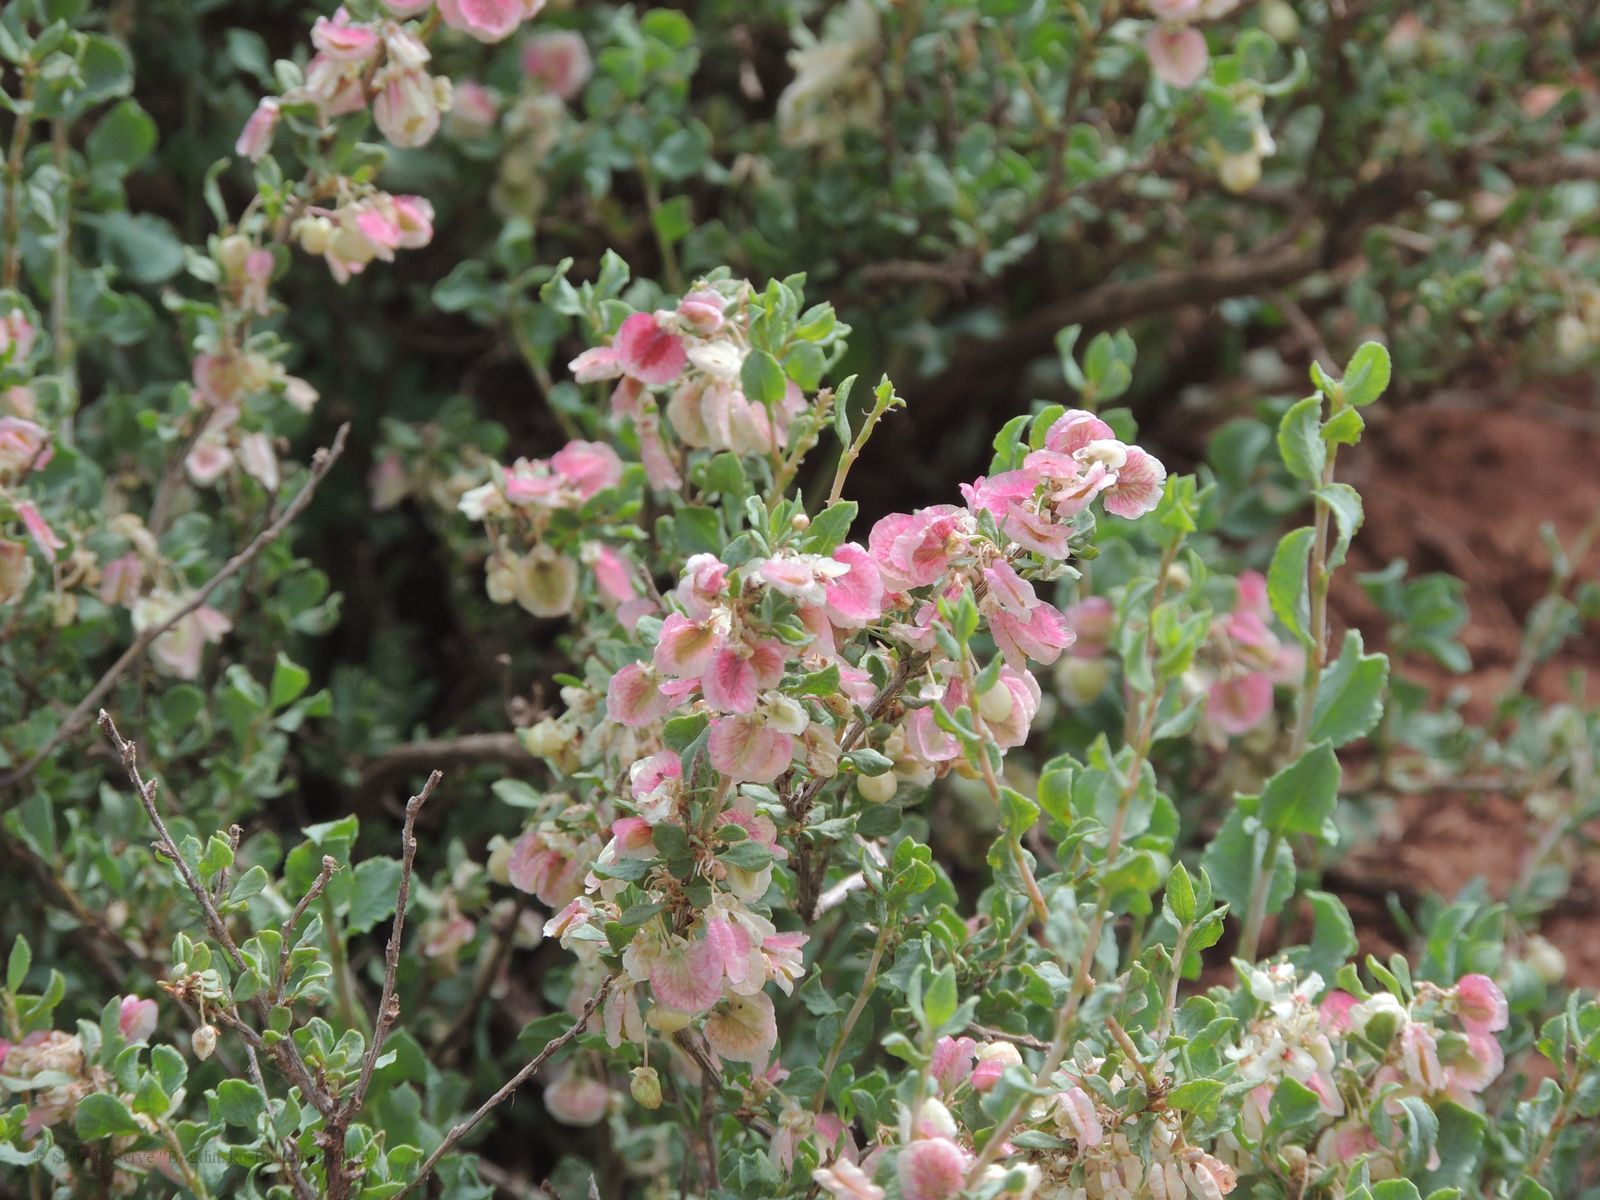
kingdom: Plantae
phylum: Tracheophyta
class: Magnoliopsida
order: Caryophyllales
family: Polygonaceae
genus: Atraphaxis
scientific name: Atraphaxis replicata
